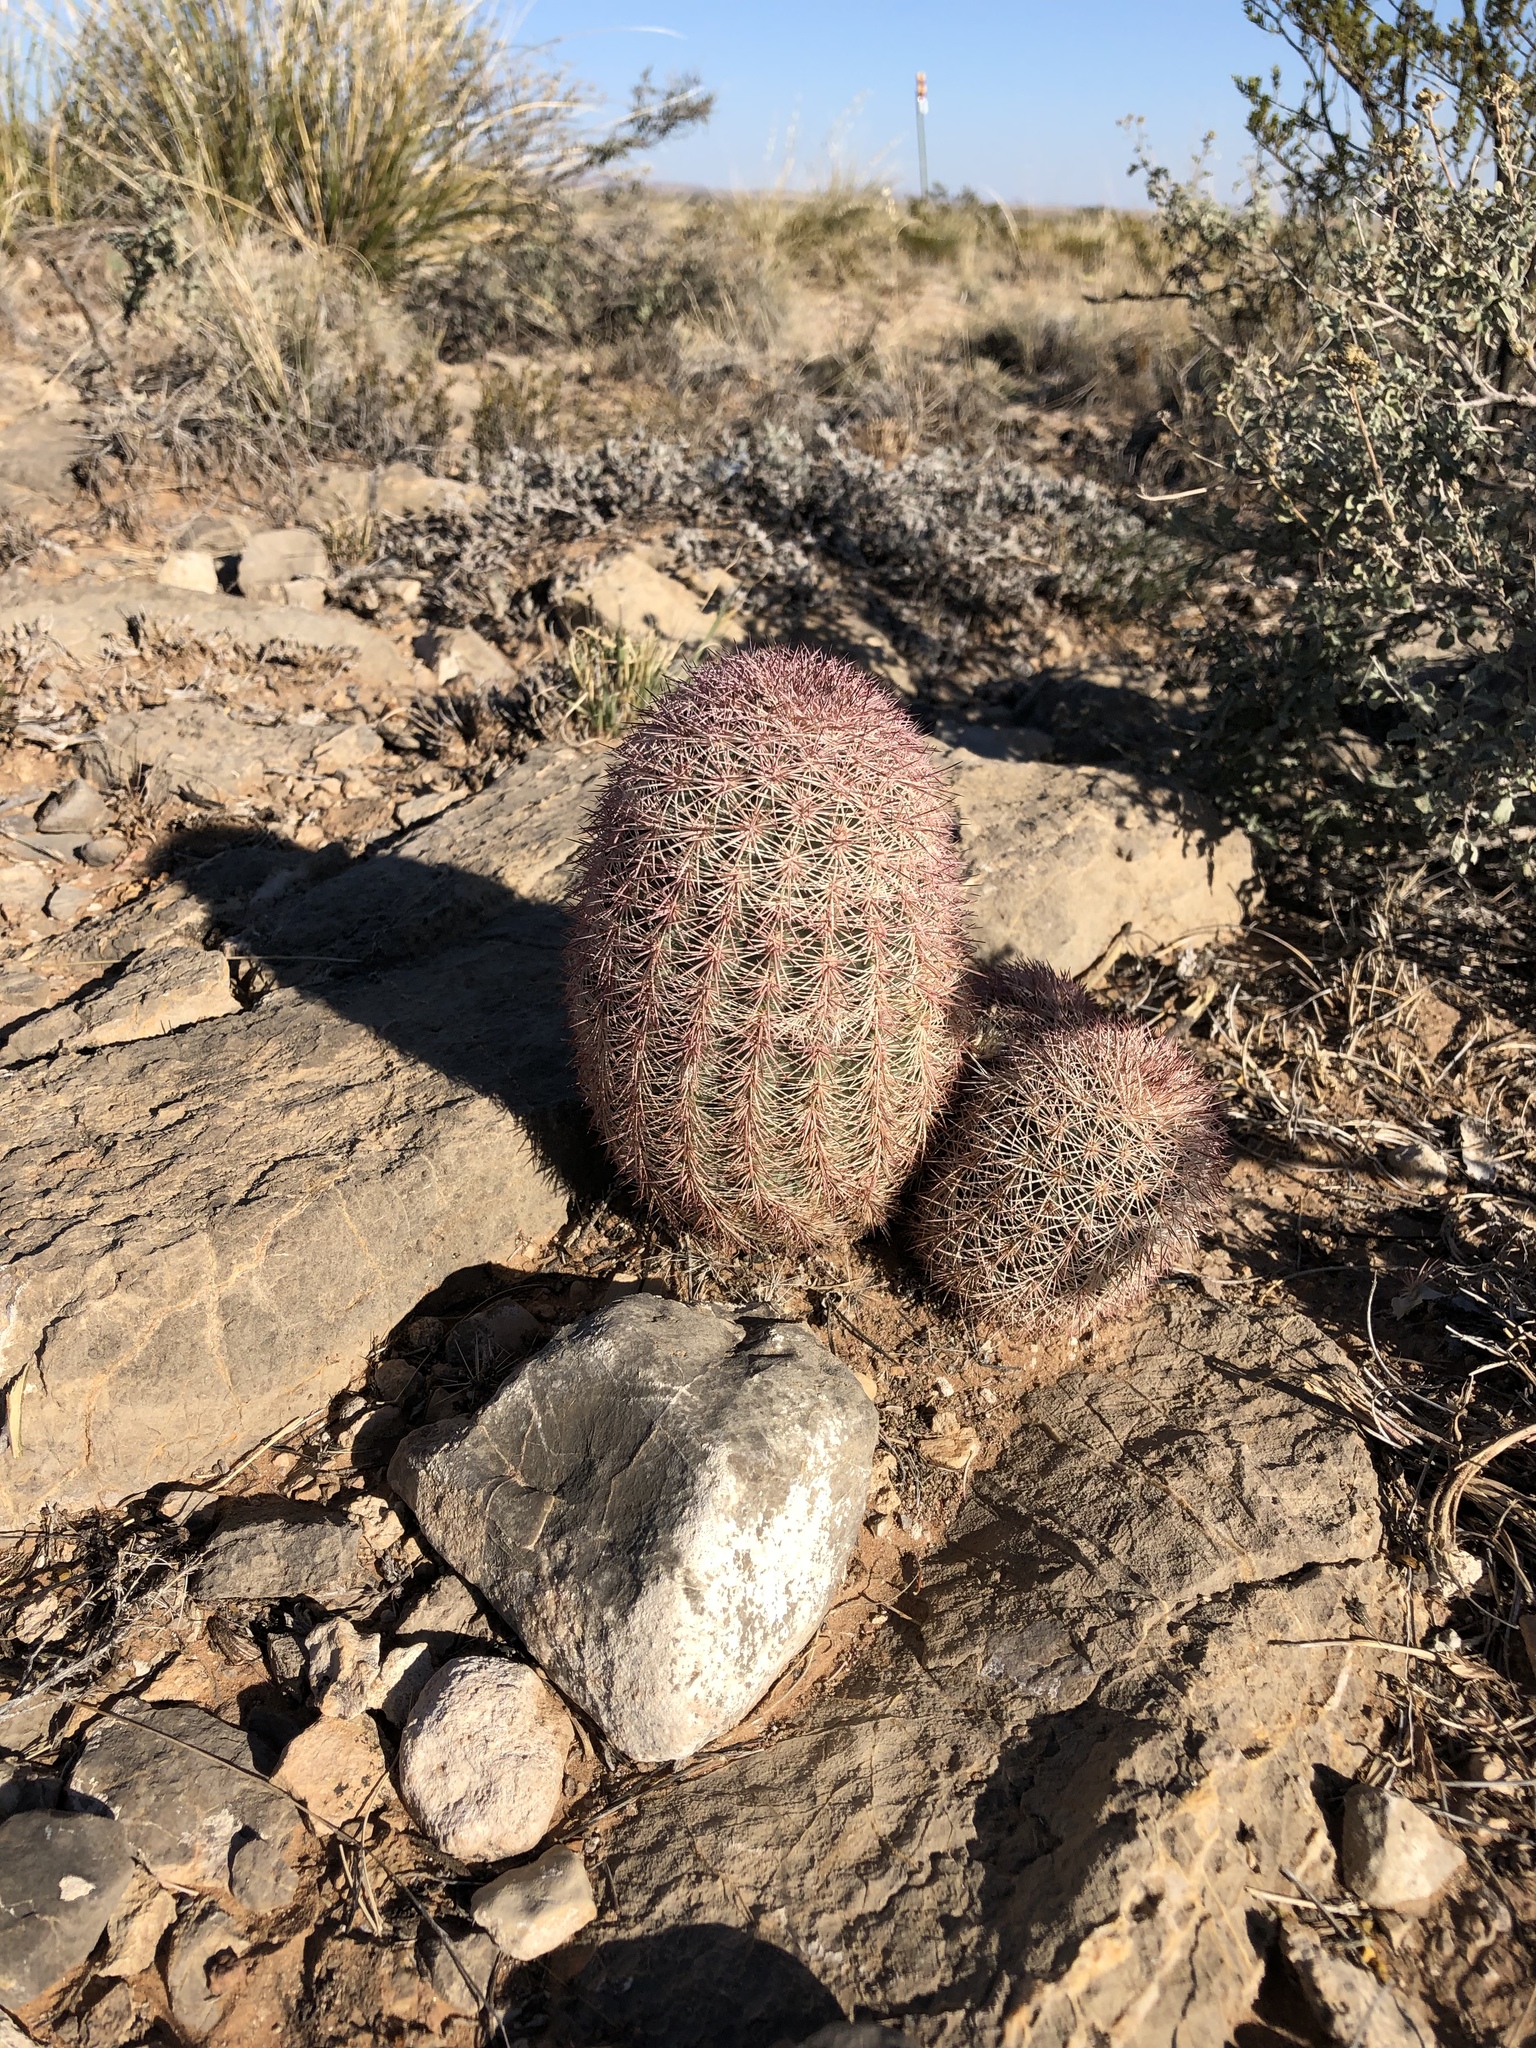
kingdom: Plantae
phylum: Tracheophyta
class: Magnoliopsida
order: Caryophyllales
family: Cactaceae
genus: Echinocereus
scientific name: Echinocereus dasyacanthus
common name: Spiny hedgehog cactus
